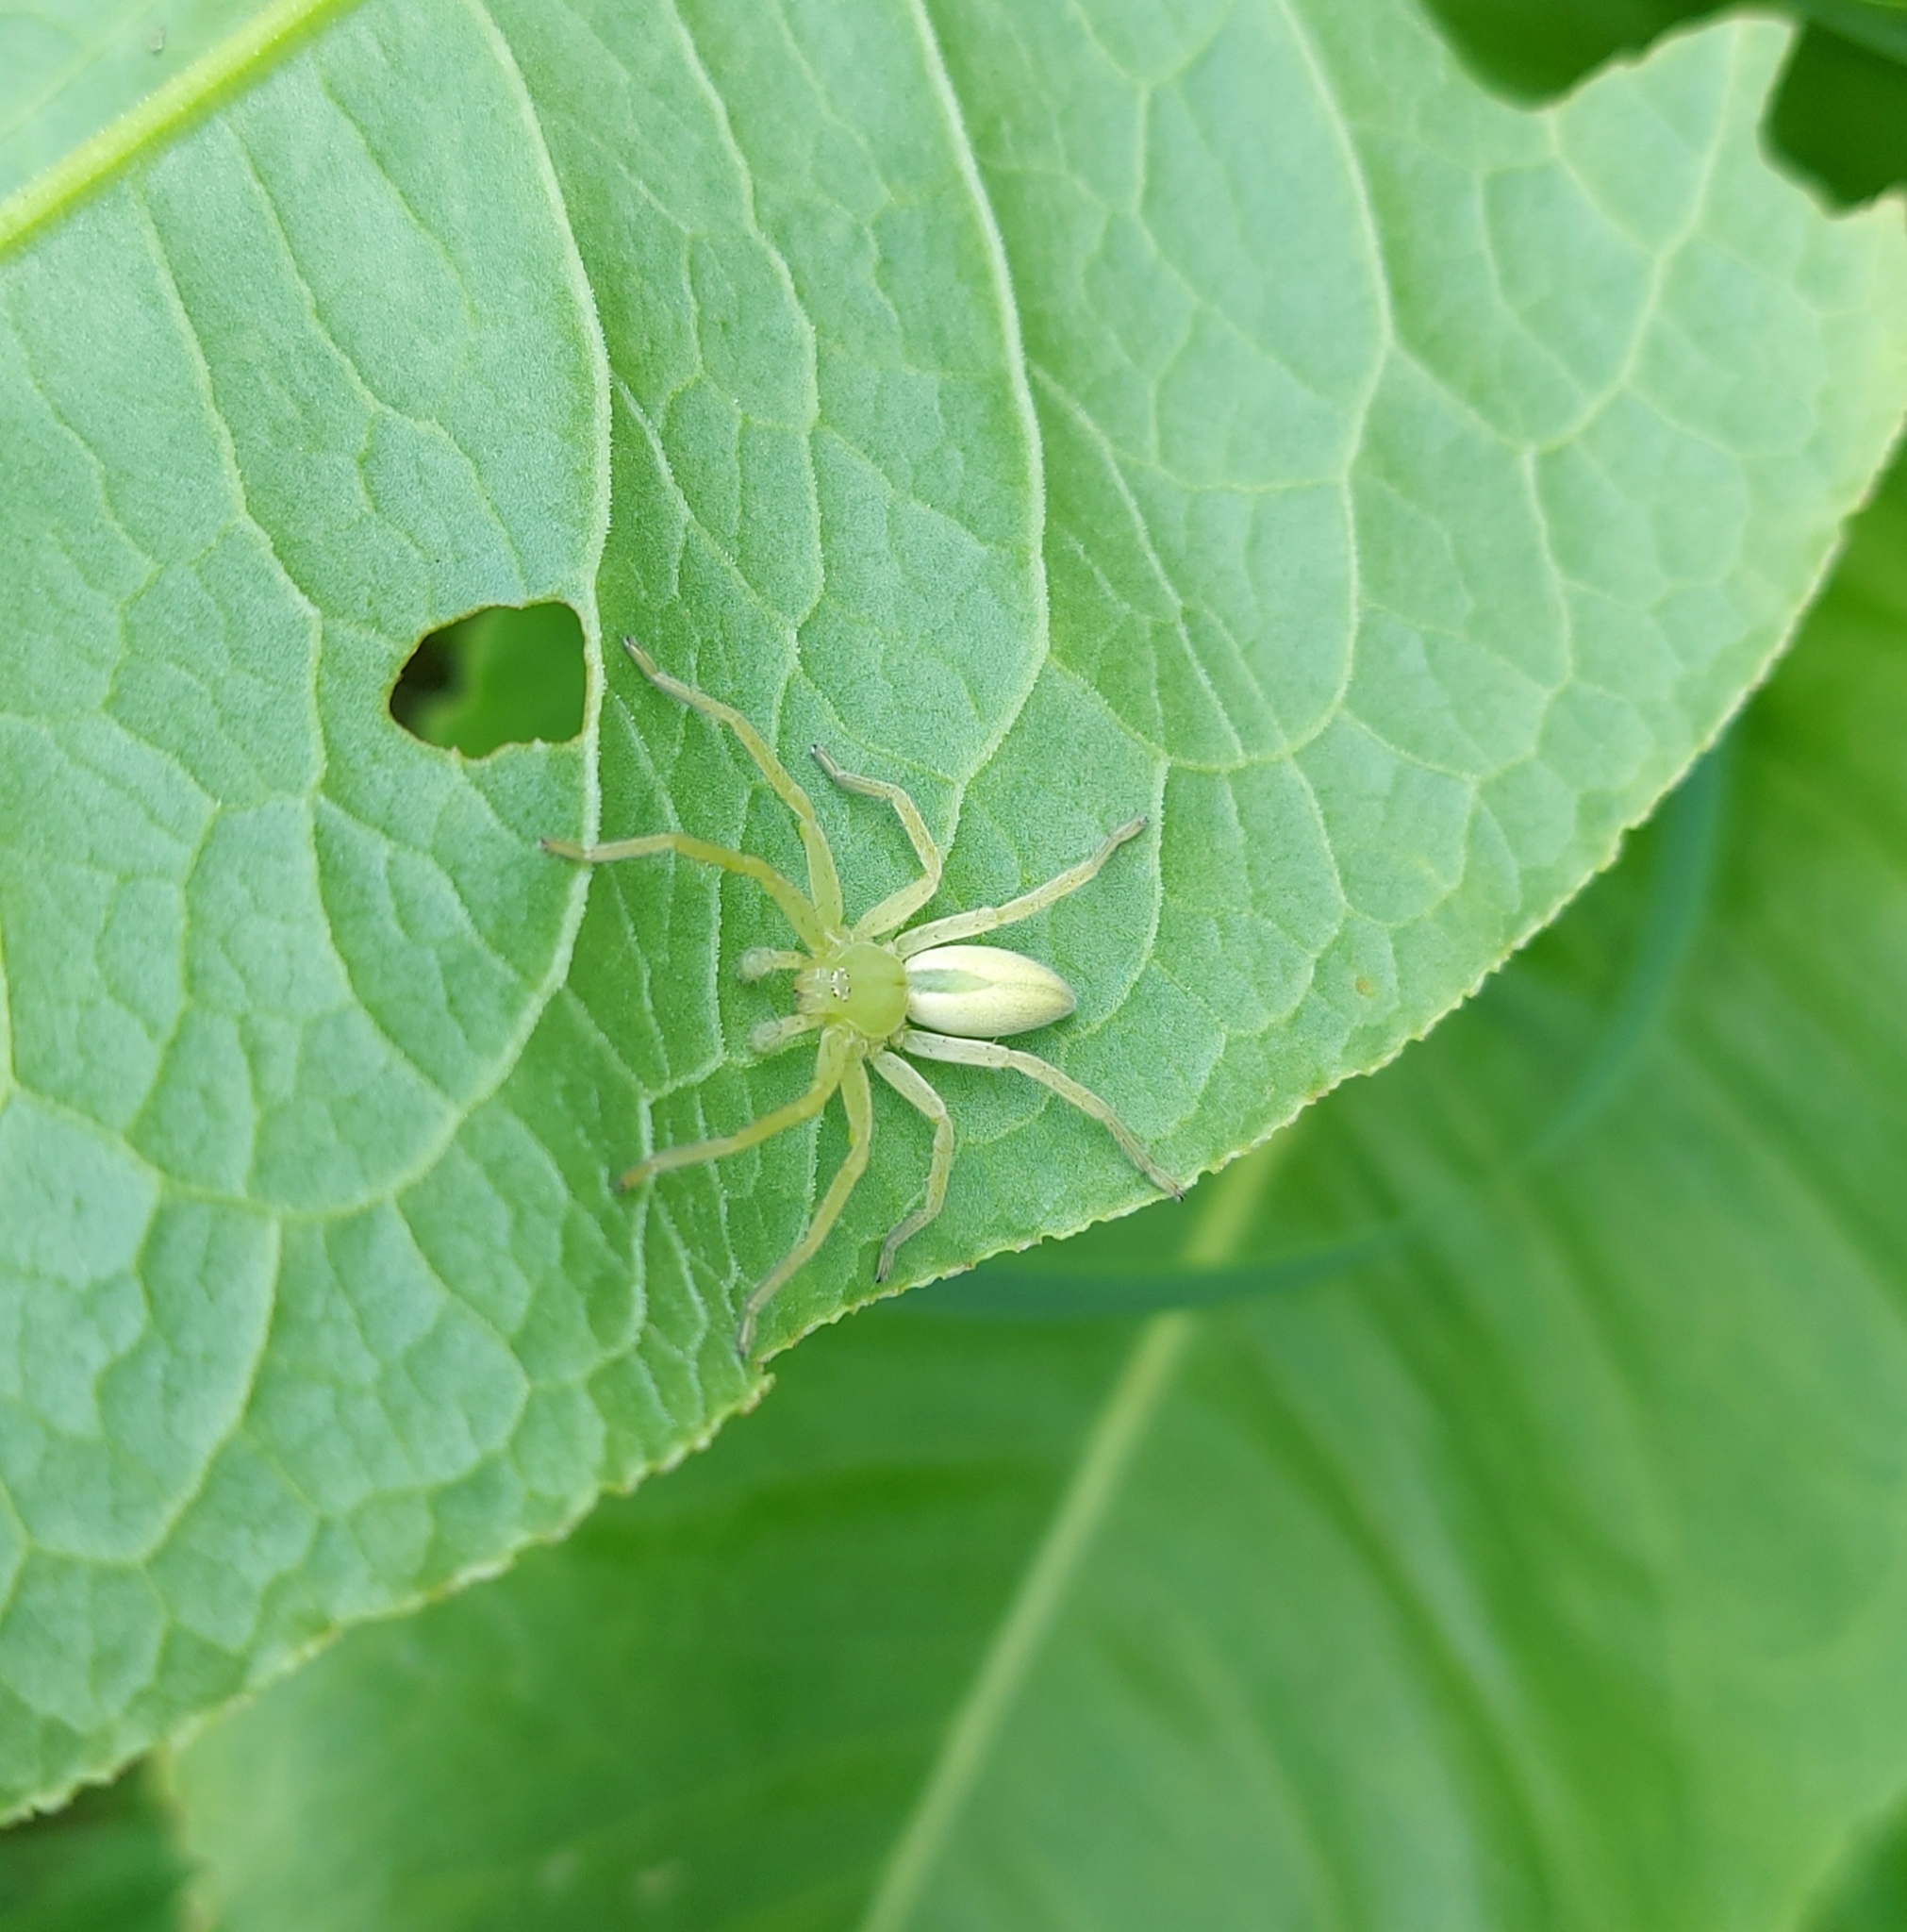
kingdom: Animalia
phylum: Arthropoda
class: Arachnida
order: Araneae
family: Sparassidae
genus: Micrommata
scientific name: Micrommata virescens
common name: Green spider
